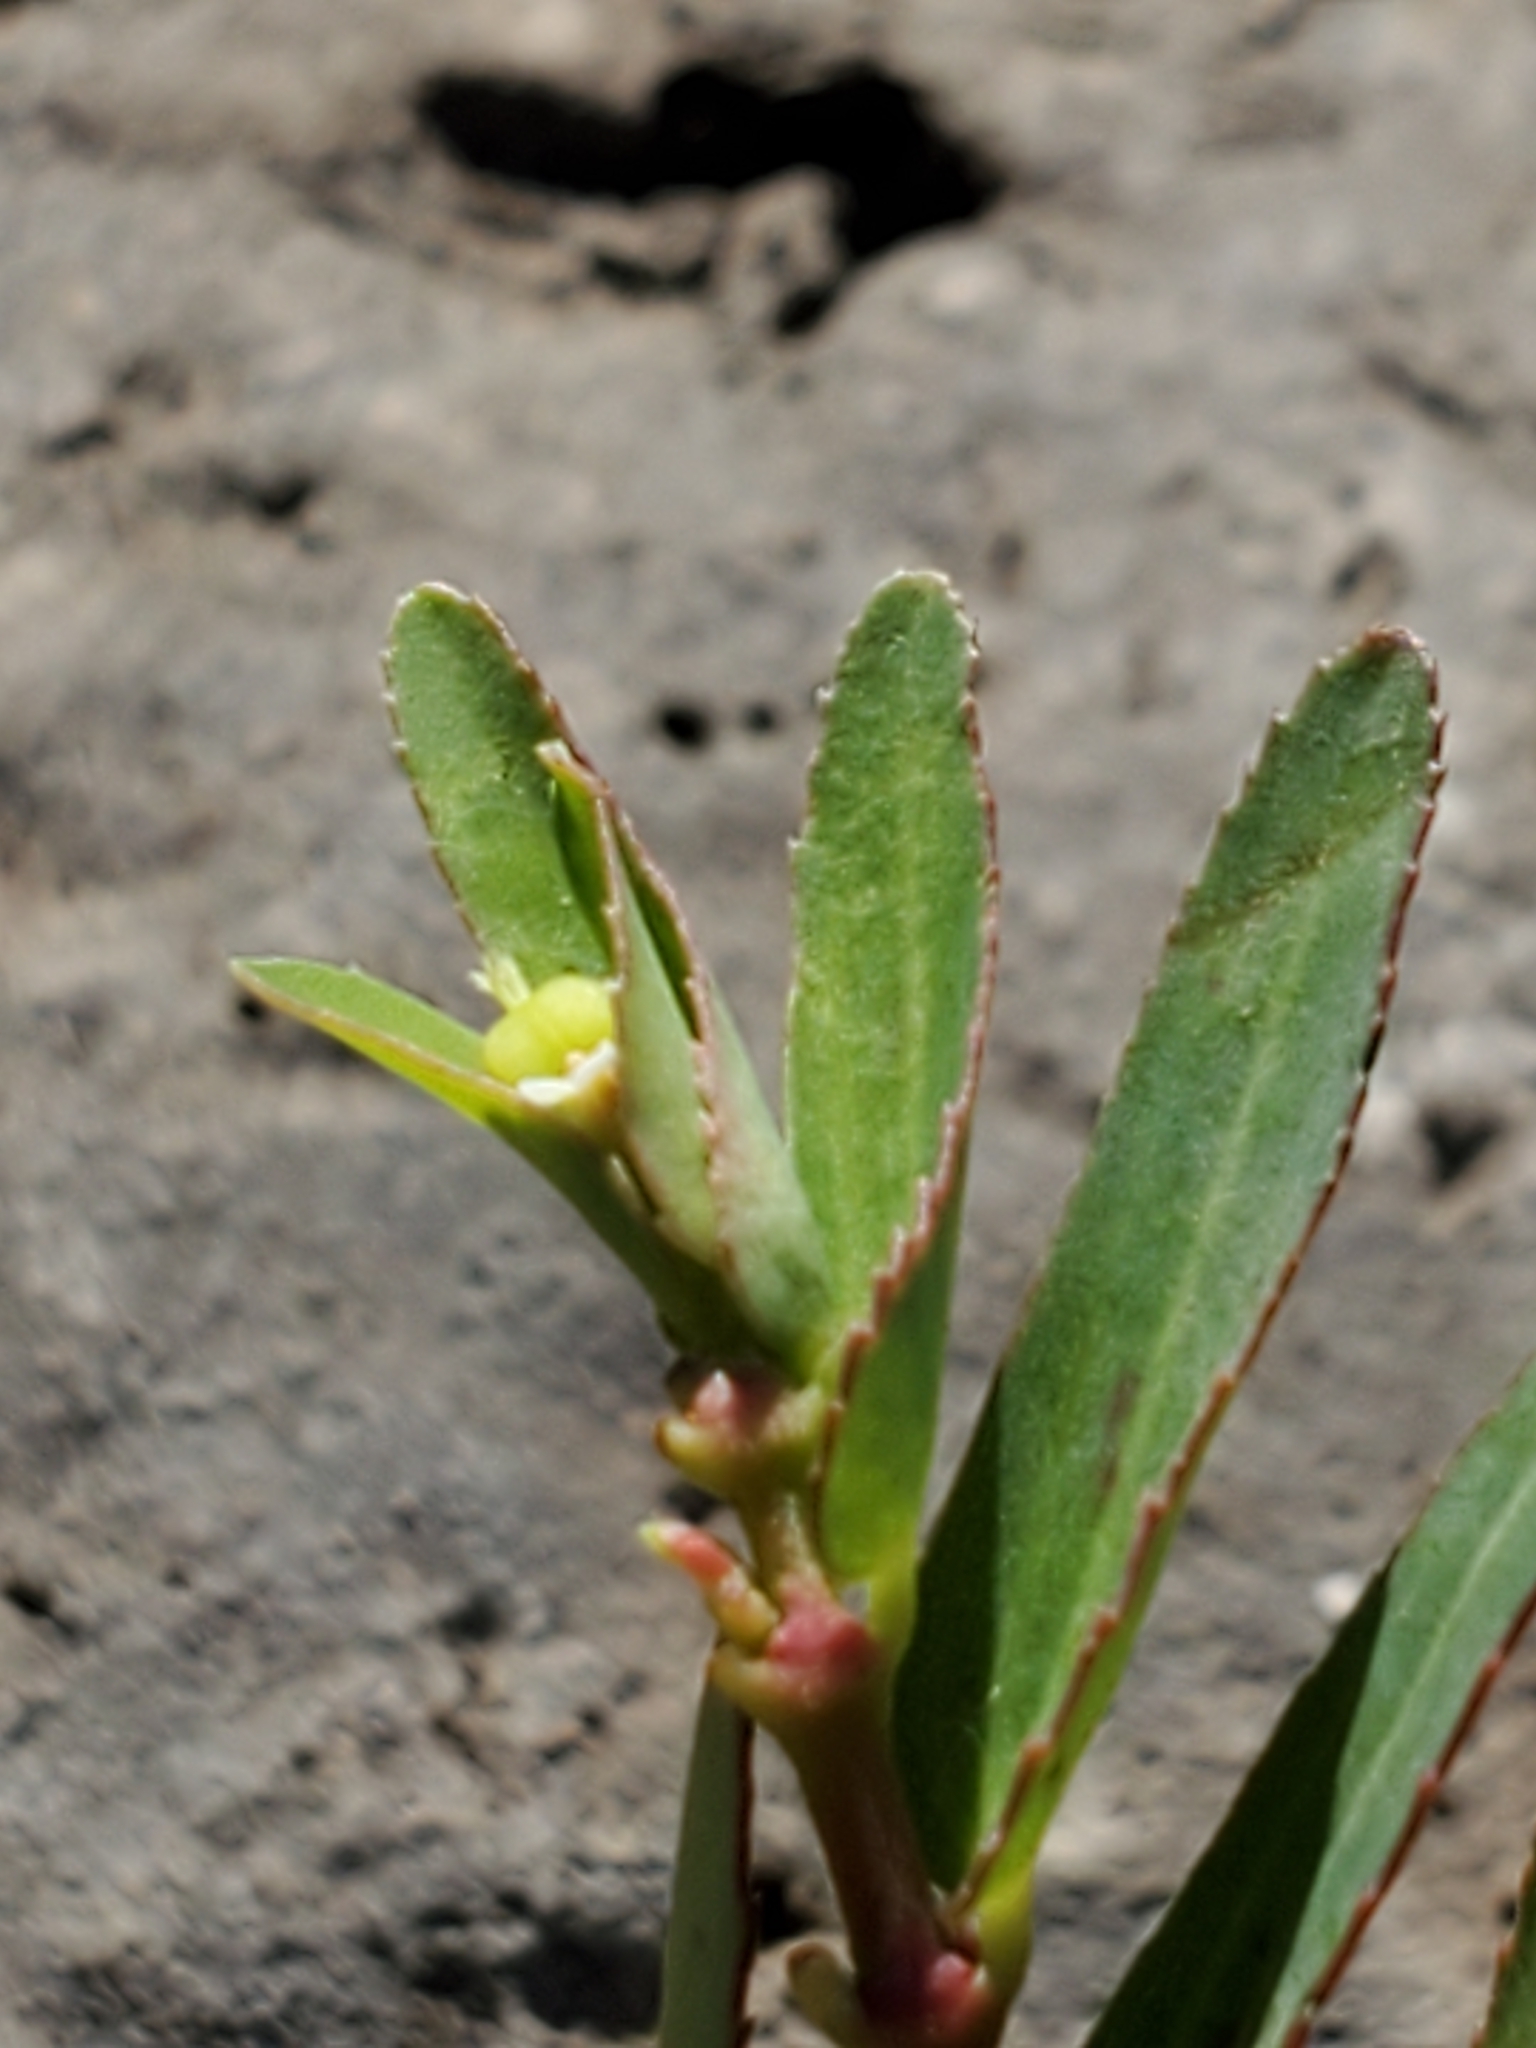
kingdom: Plantae
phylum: Tracheophyta
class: Magnoliopsida
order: Malpighiales
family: Euphorbiaceae
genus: Euphorbia
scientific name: Euphorbia hyssopifolia
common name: Hyssopleaf sandmat
